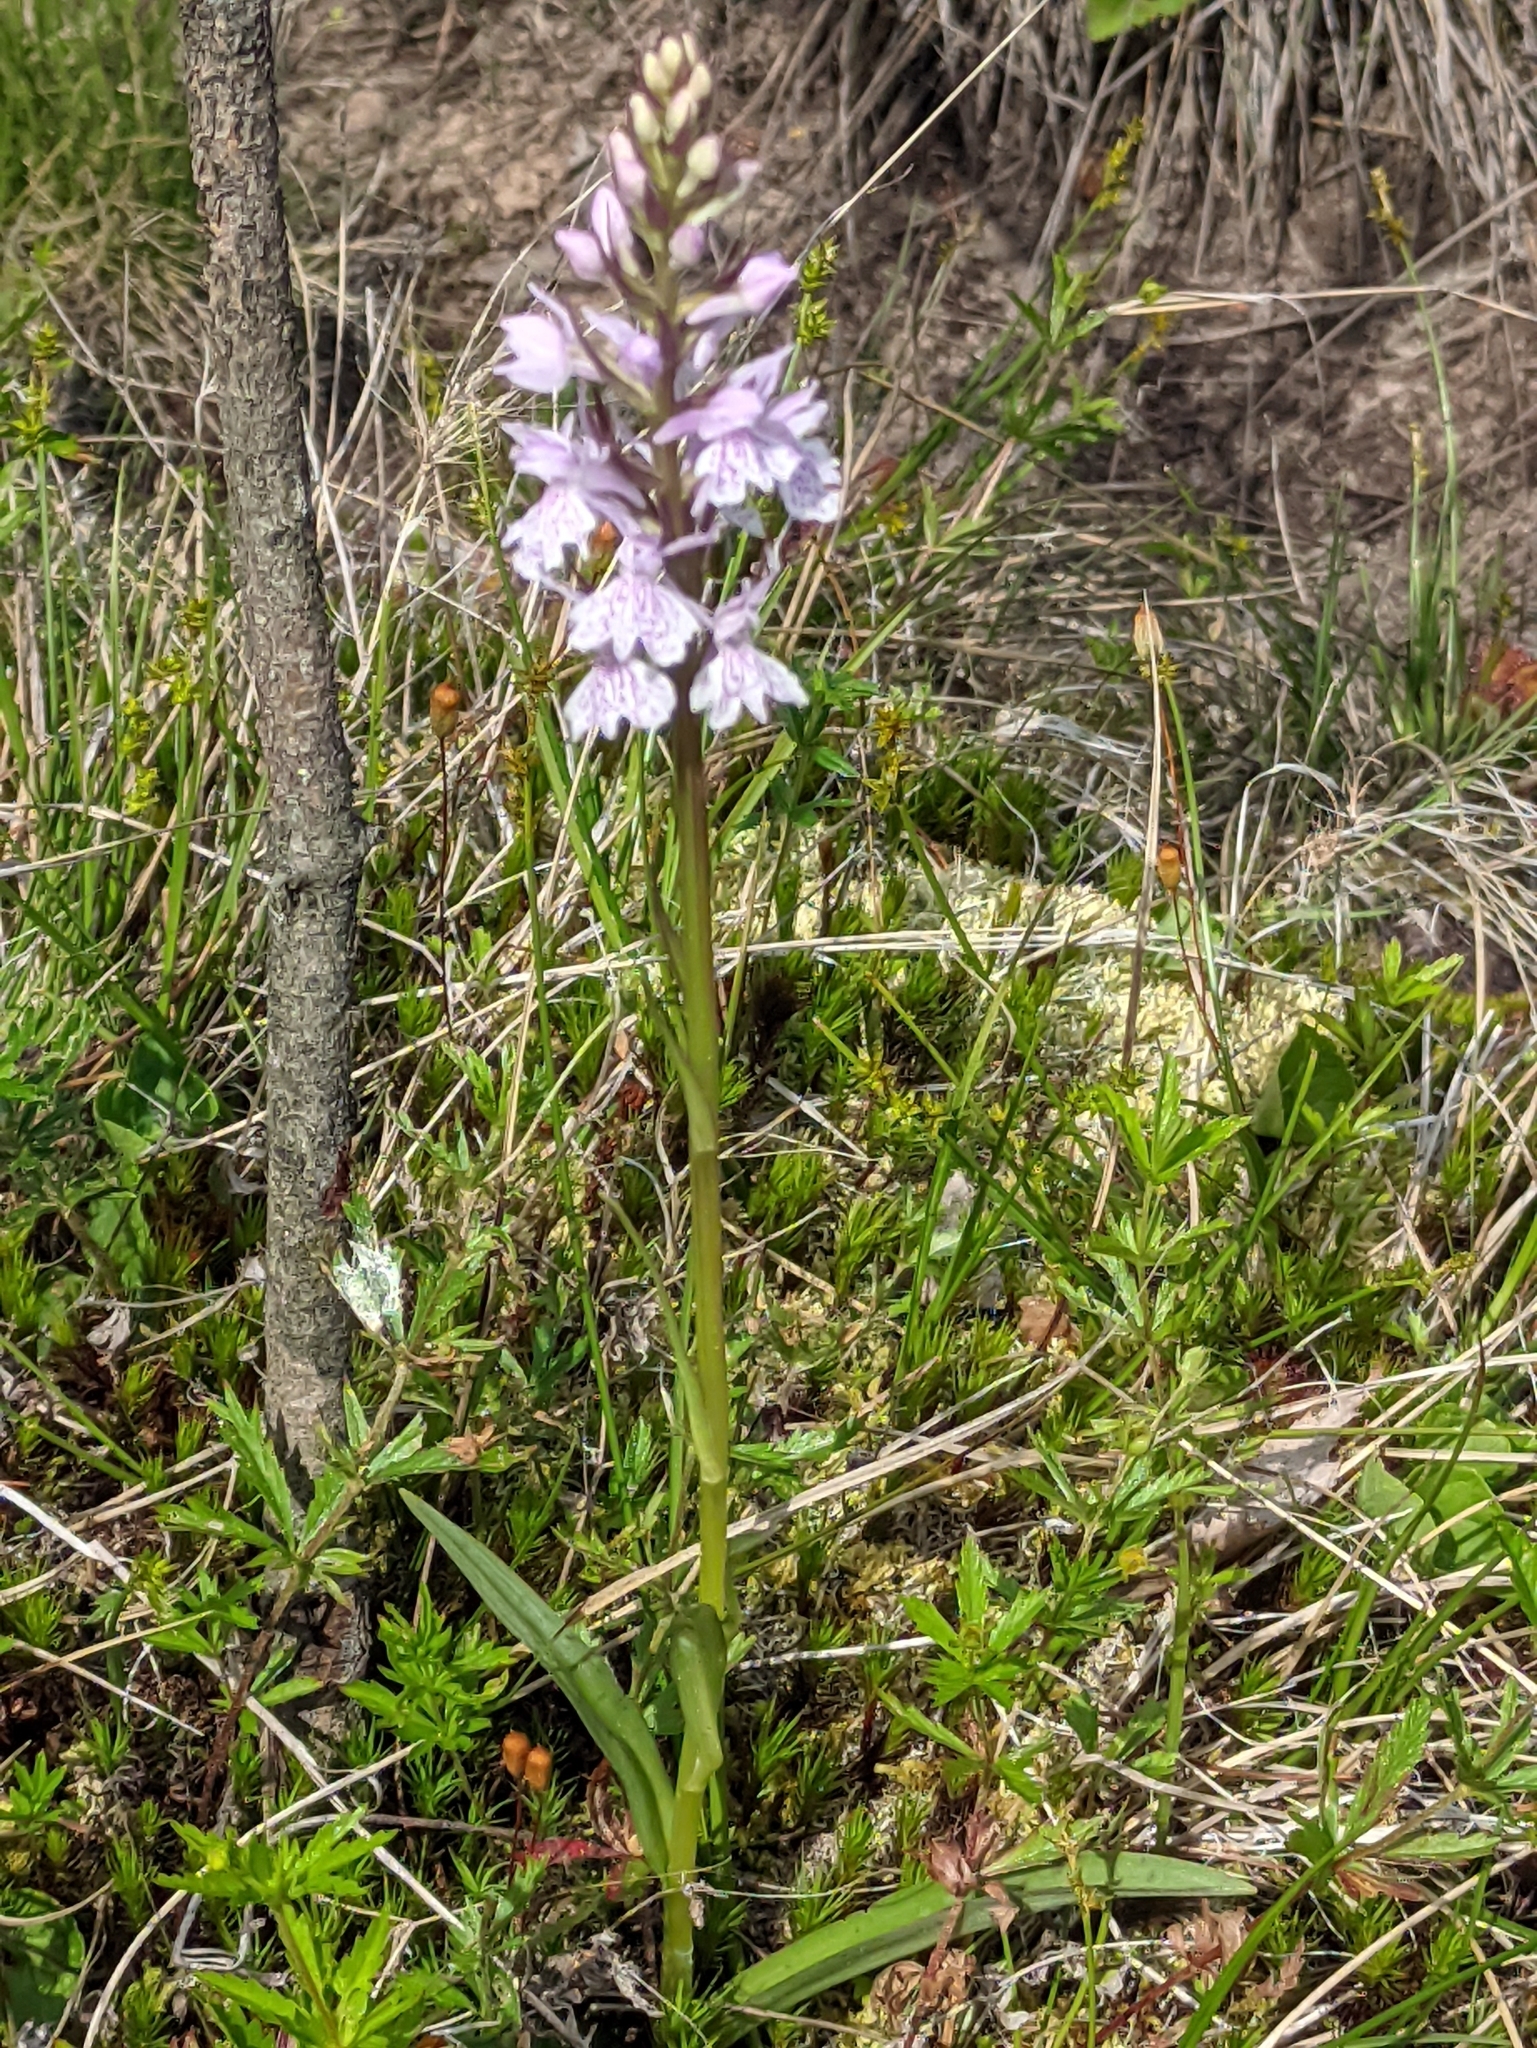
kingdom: Plantae
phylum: Tracheophyta
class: Liliopsida
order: Asparagales
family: Orchidaceae
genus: Dactylorhiza
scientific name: Dactylorhiza maculata
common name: Heath spotted-orchid
